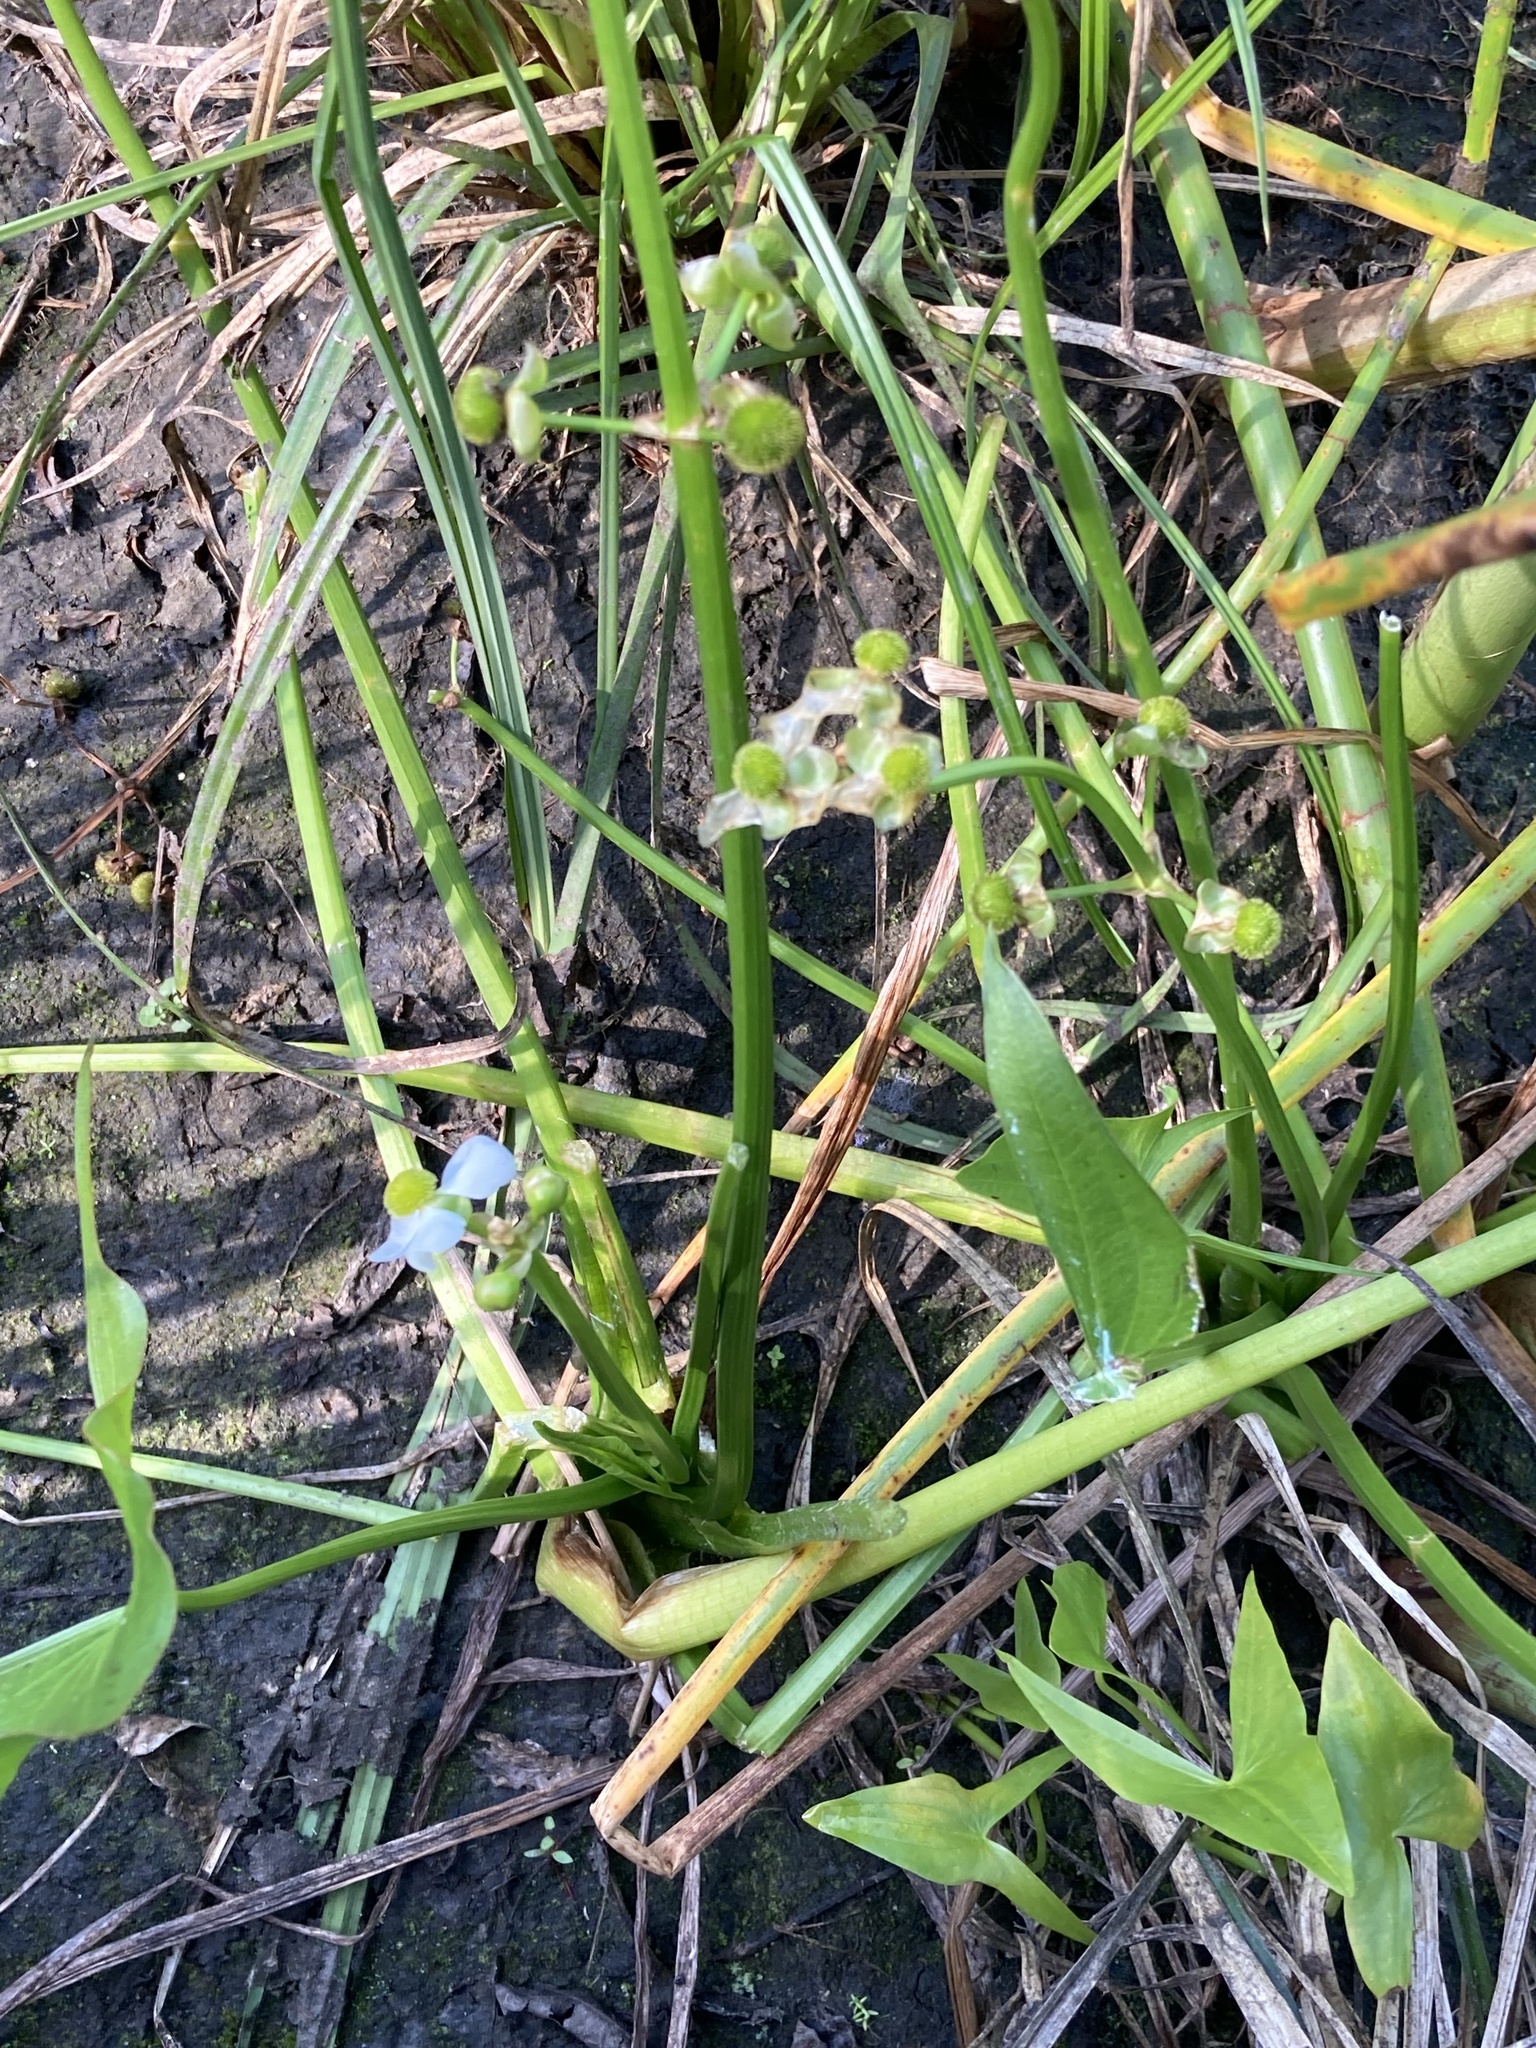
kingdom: Plantae
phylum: Tracheophyta
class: Liliopsida
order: Alismatales
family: Alismataceae
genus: Sagittaria
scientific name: Sagittaria latifolia
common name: Duck-potato
